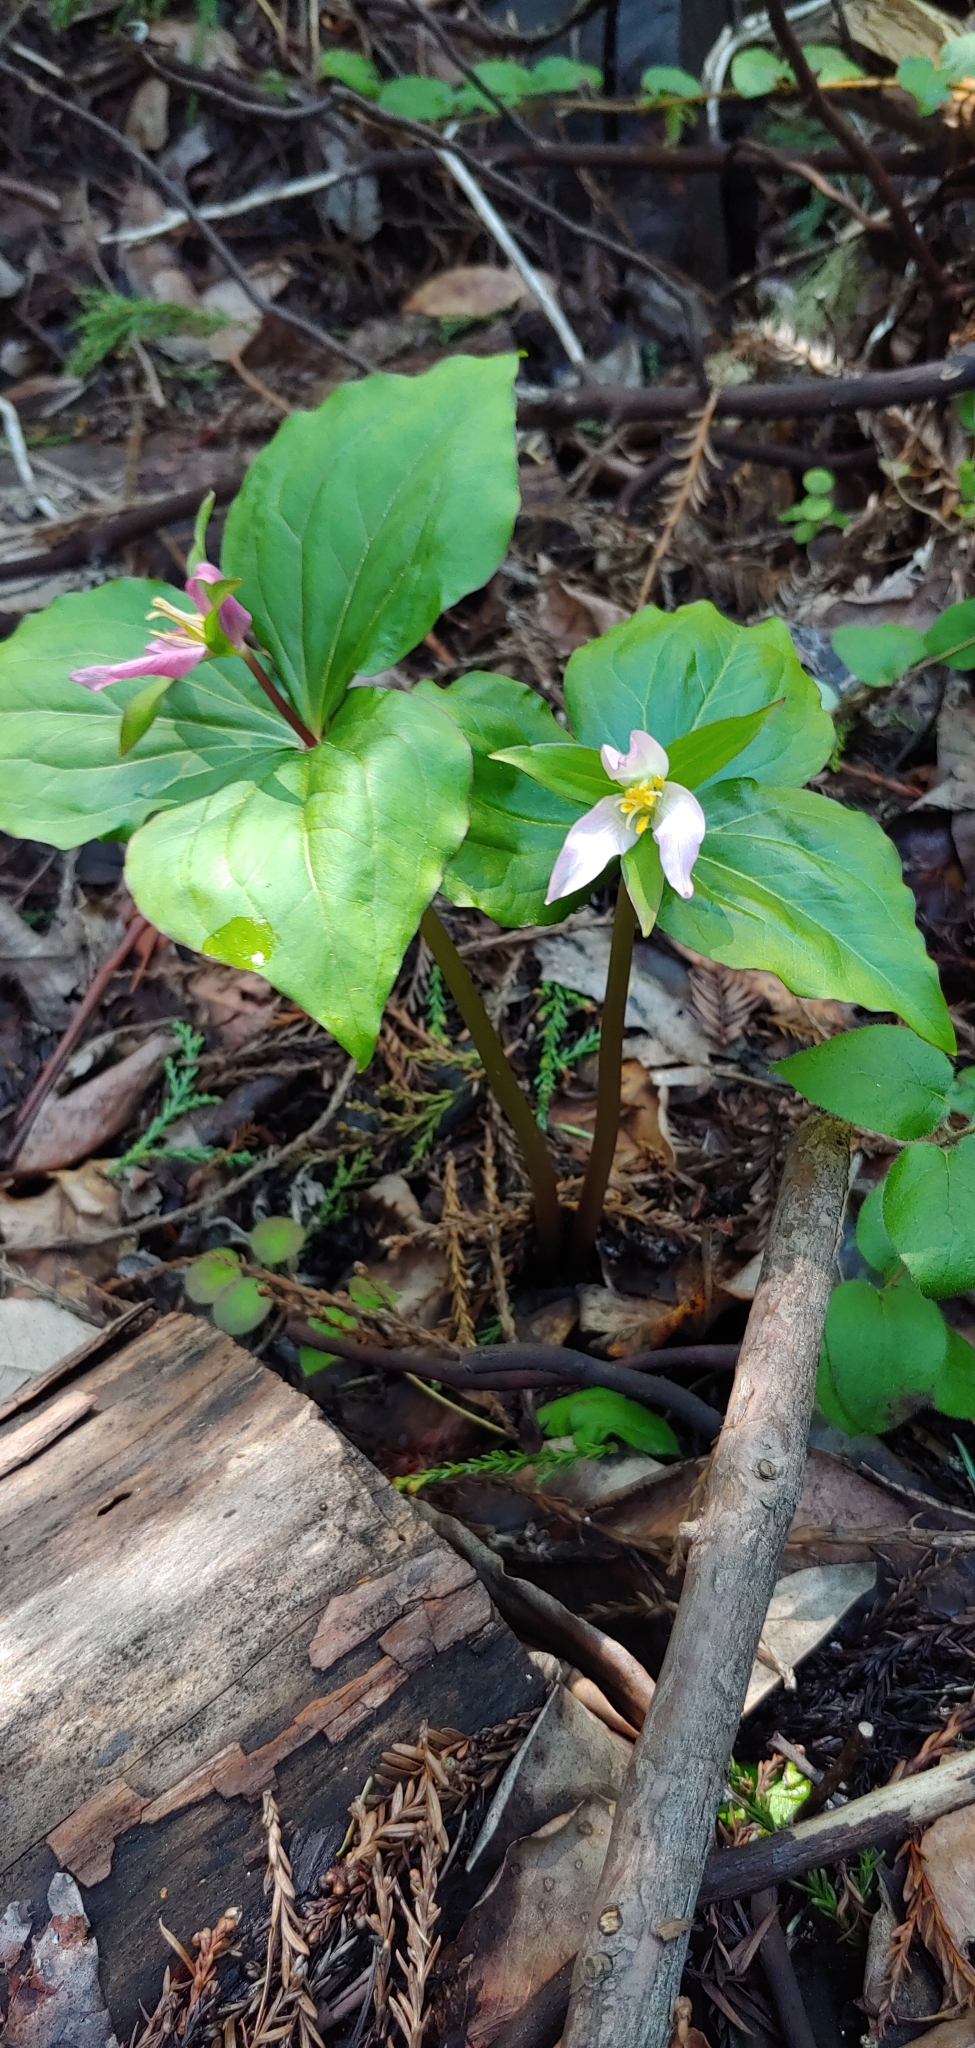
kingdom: Plantae
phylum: Tracheophyta
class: Liliopsida
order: Liliales
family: Melanthiaceae
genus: Trillium
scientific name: Trillium ovatum
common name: Pacific trillium
